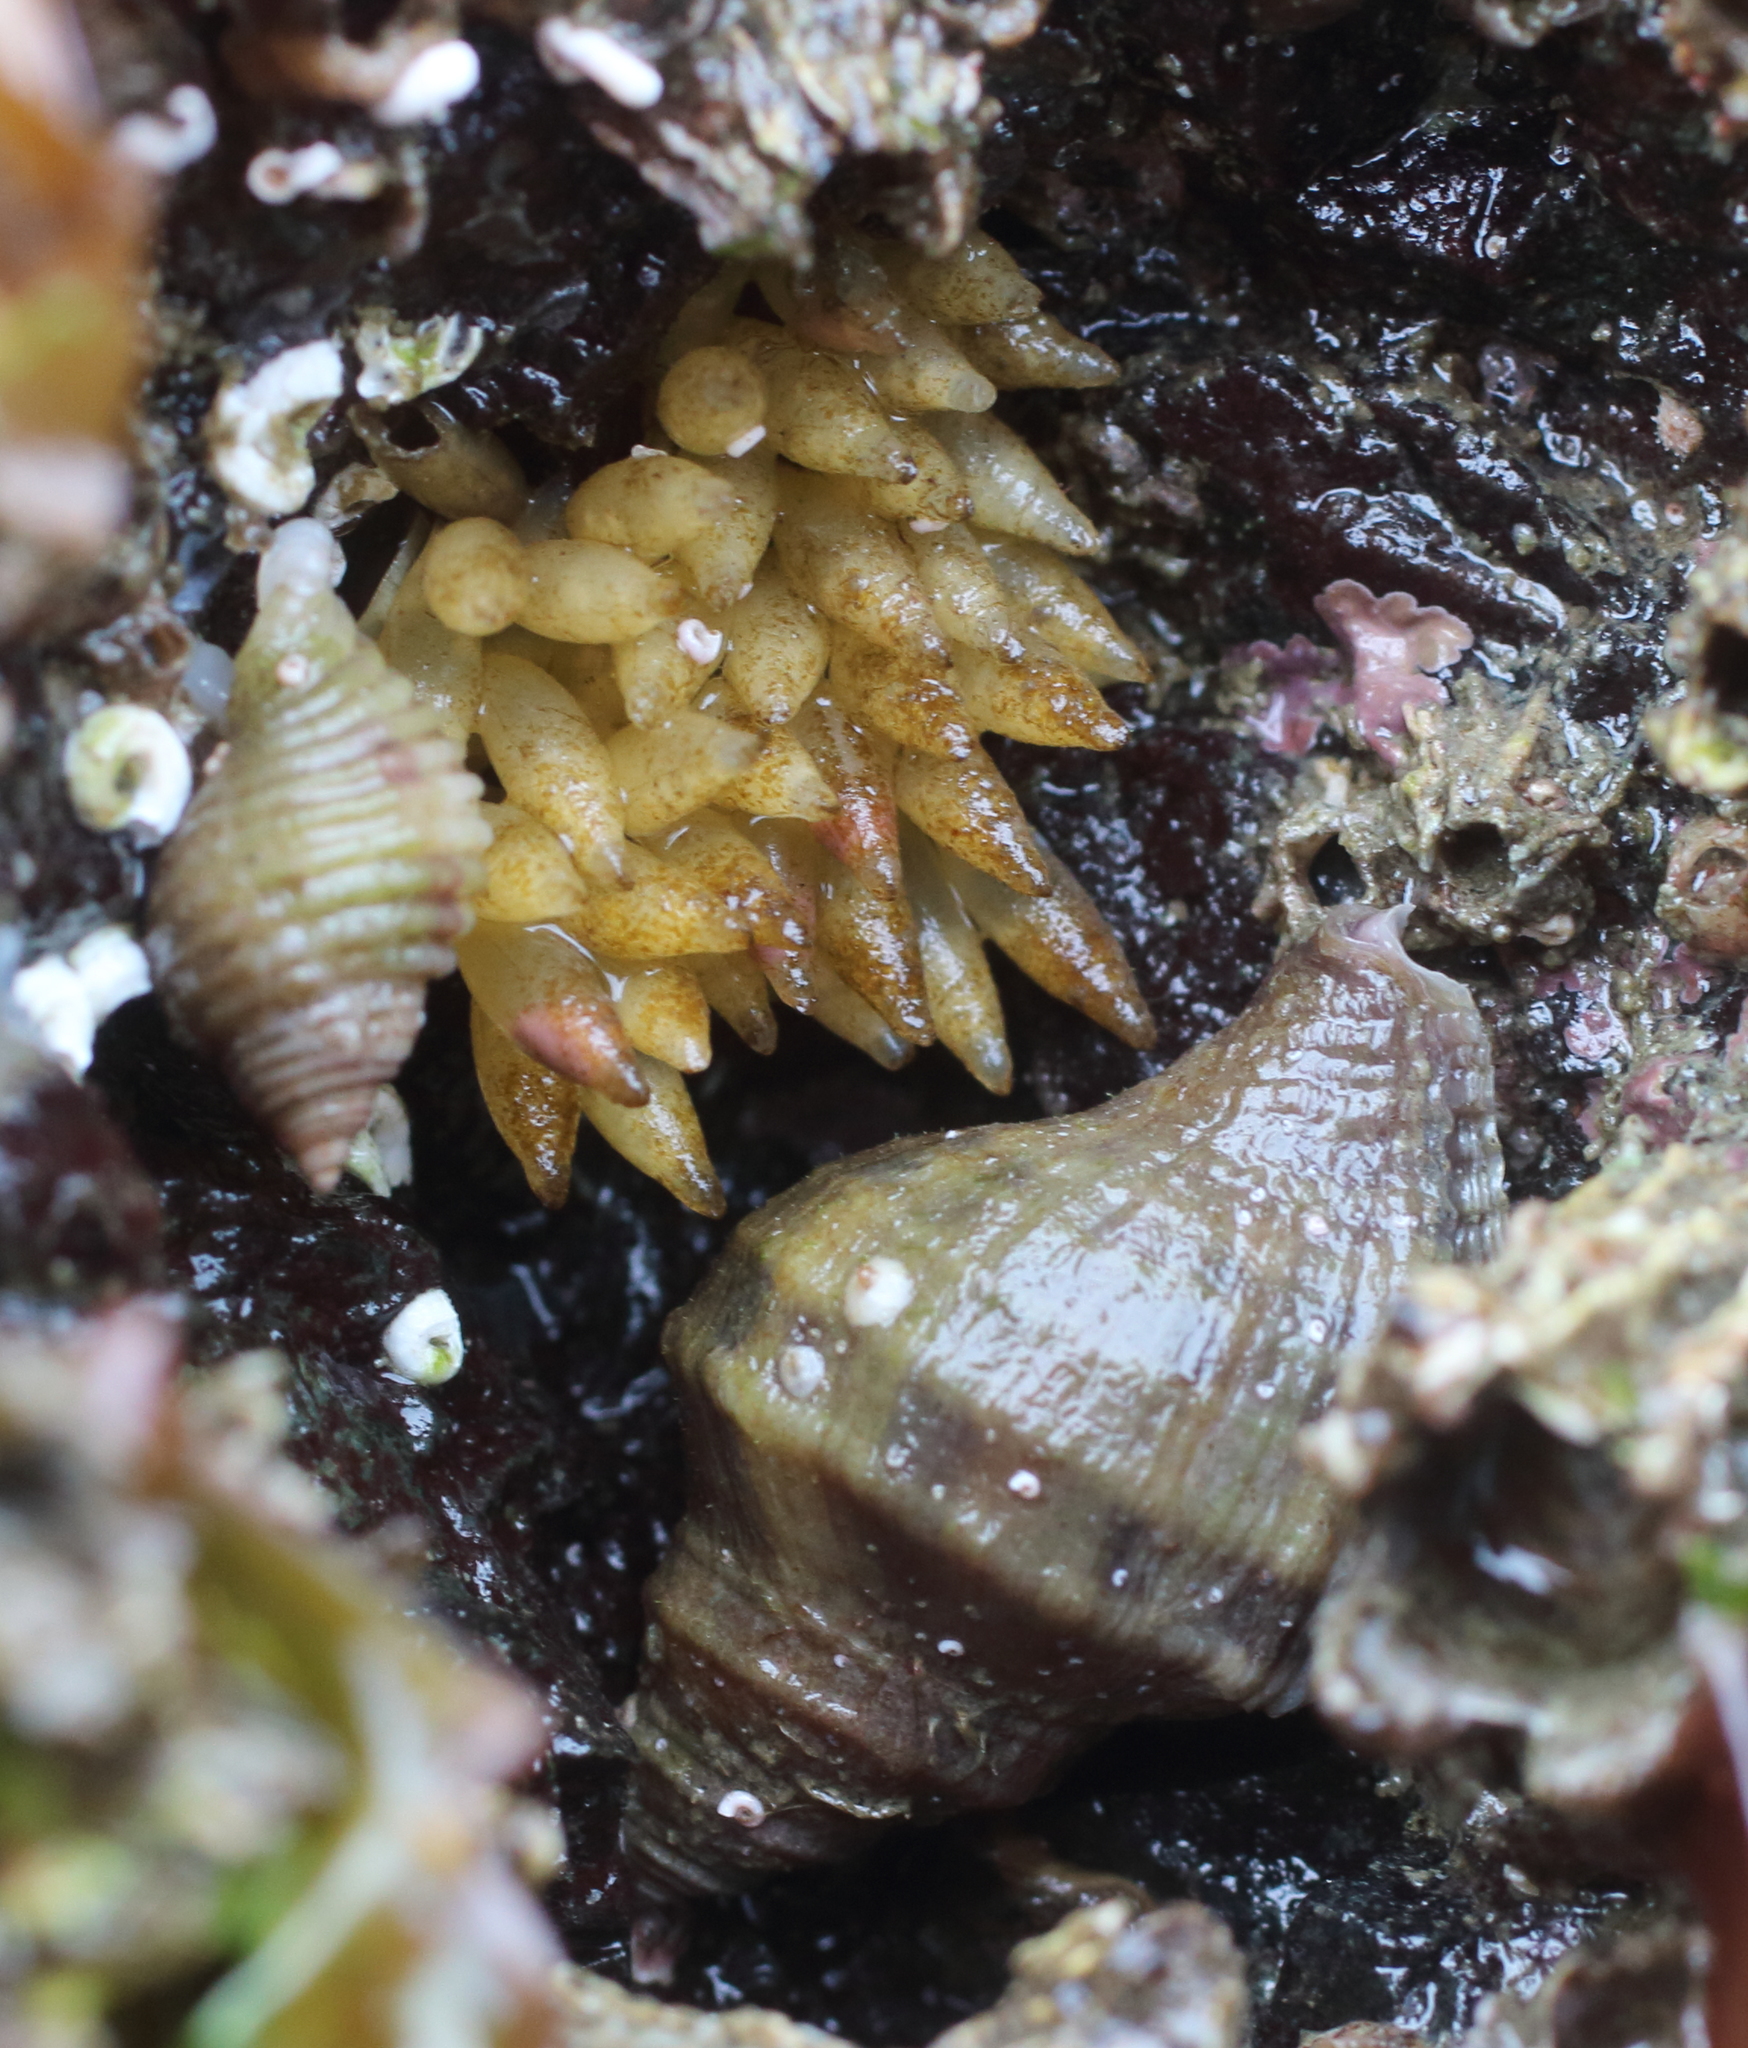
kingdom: Animalia
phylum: Mollusca
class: Gastropoda
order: Neogastropoda
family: Muricidae
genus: Nucella
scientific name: Nucella lamellosa
